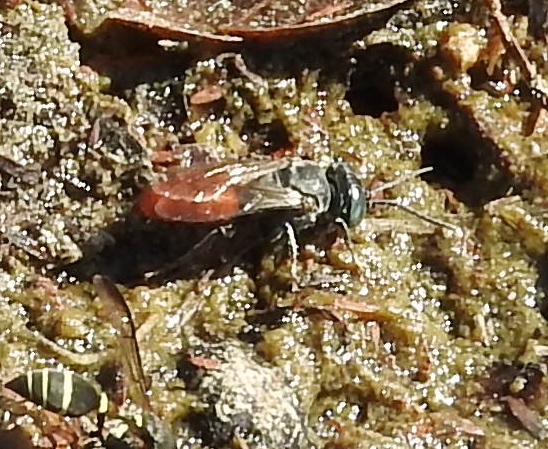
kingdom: Animalia
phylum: Arthropoda
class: Insecta
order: Hymenoptera
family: Crabronidae
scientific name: Crabronidae
